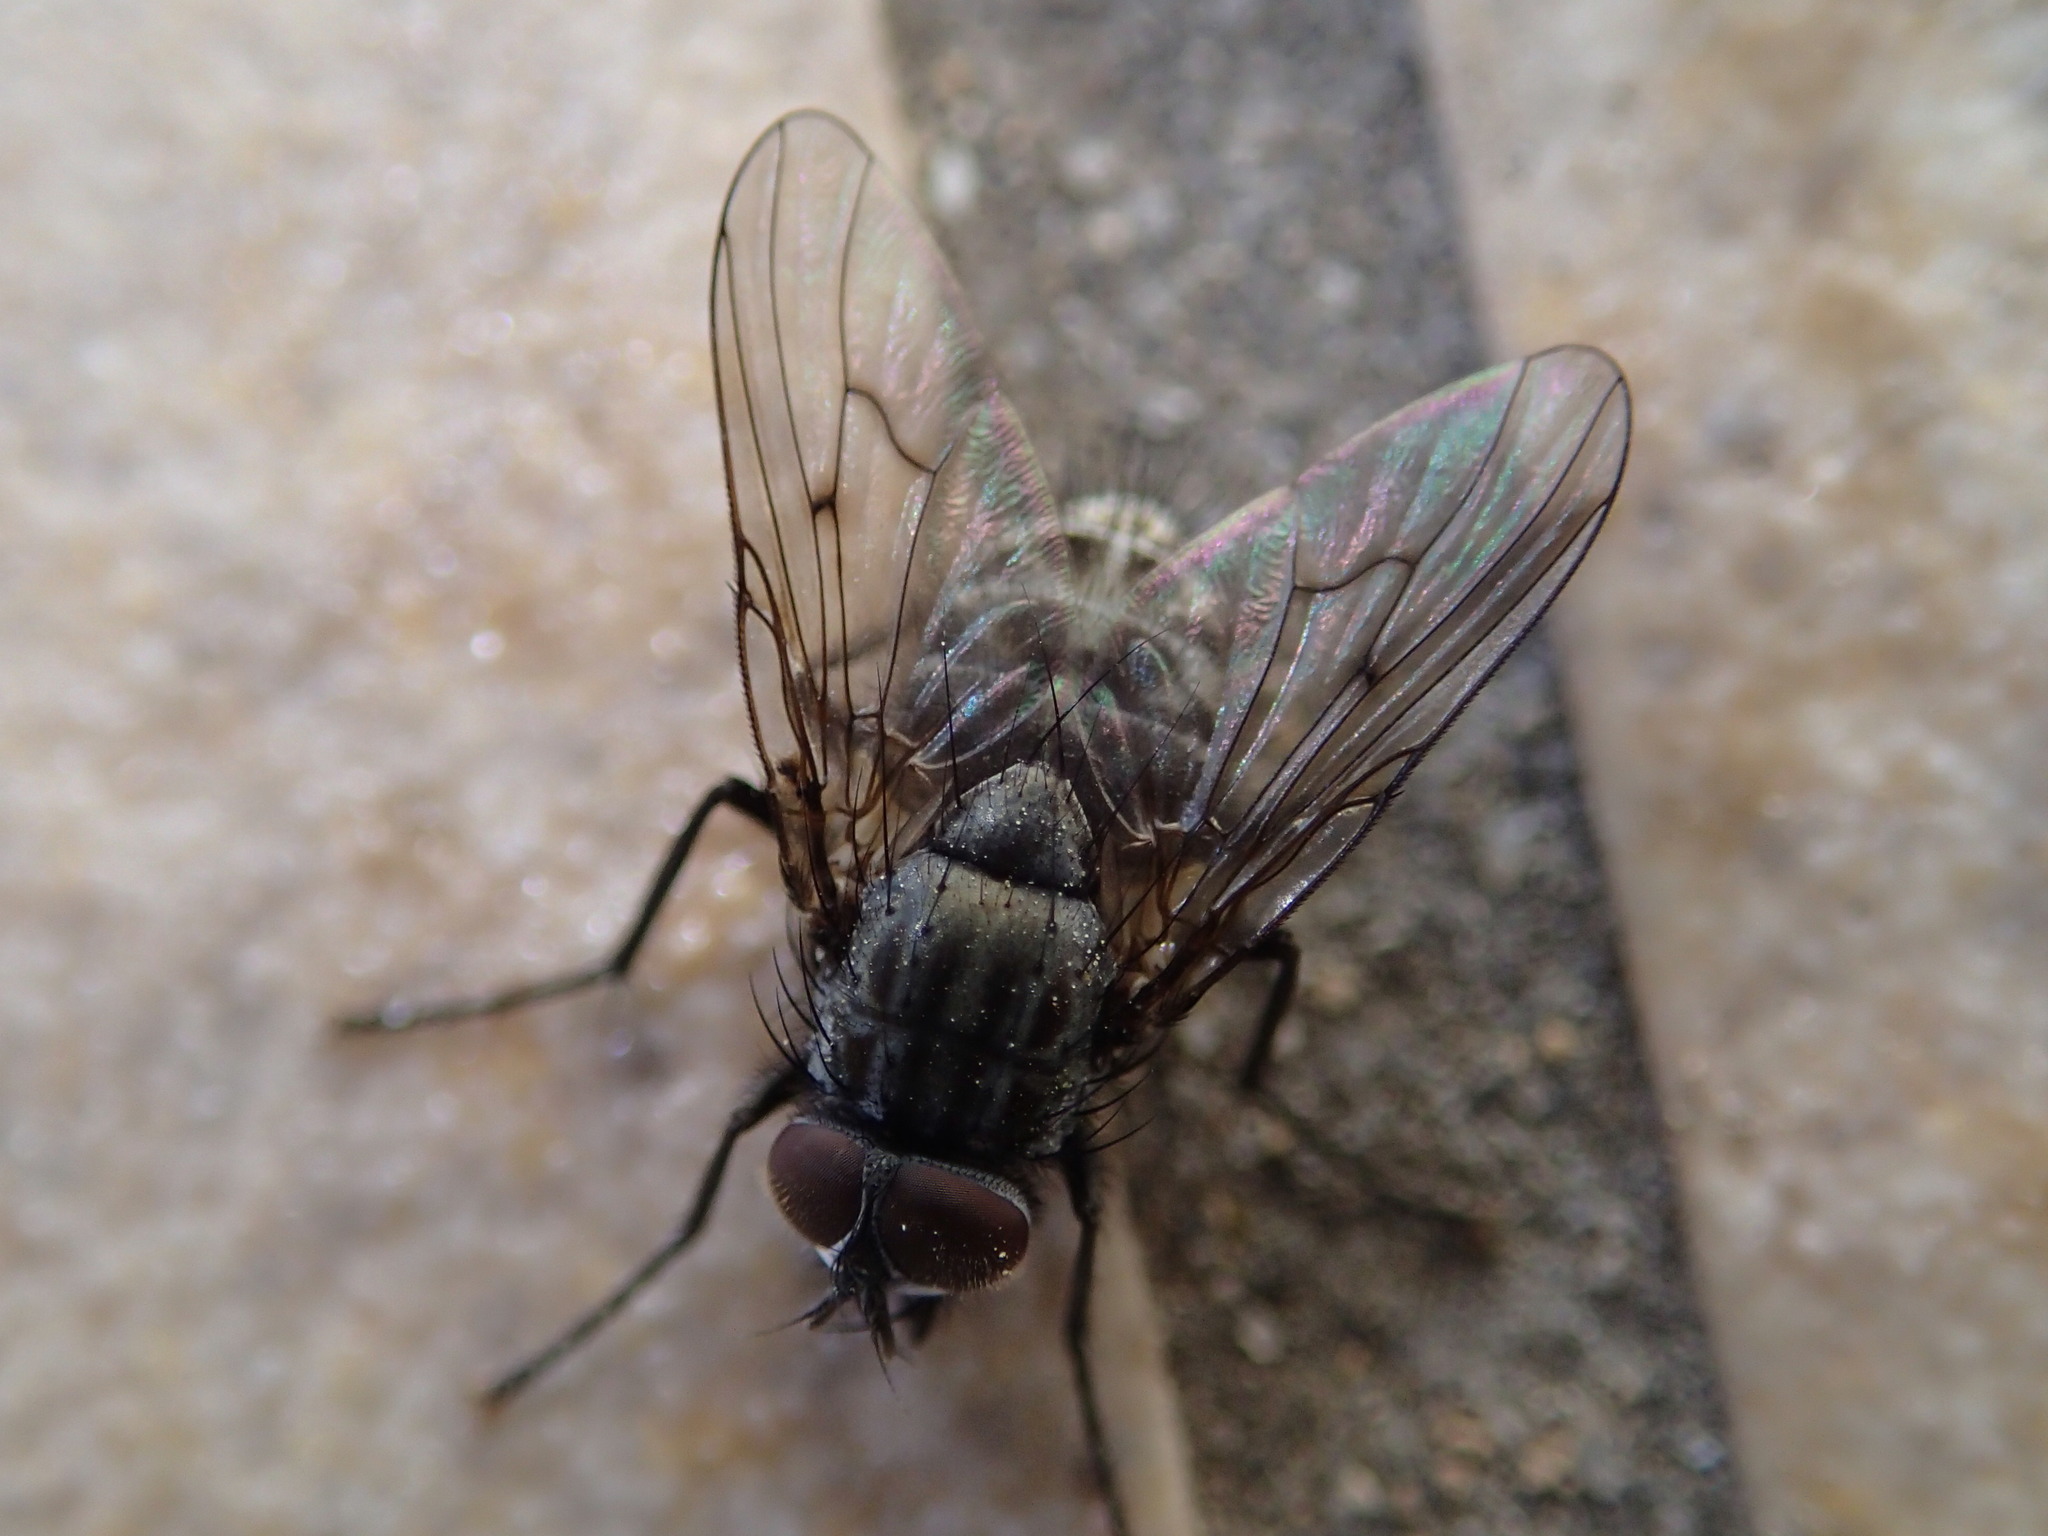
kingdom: Animalia
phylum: Arthropoda
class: Insecta
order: Diptera
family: Muscidae
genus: Helina
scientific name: Helina evecta
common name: Muscid fly
